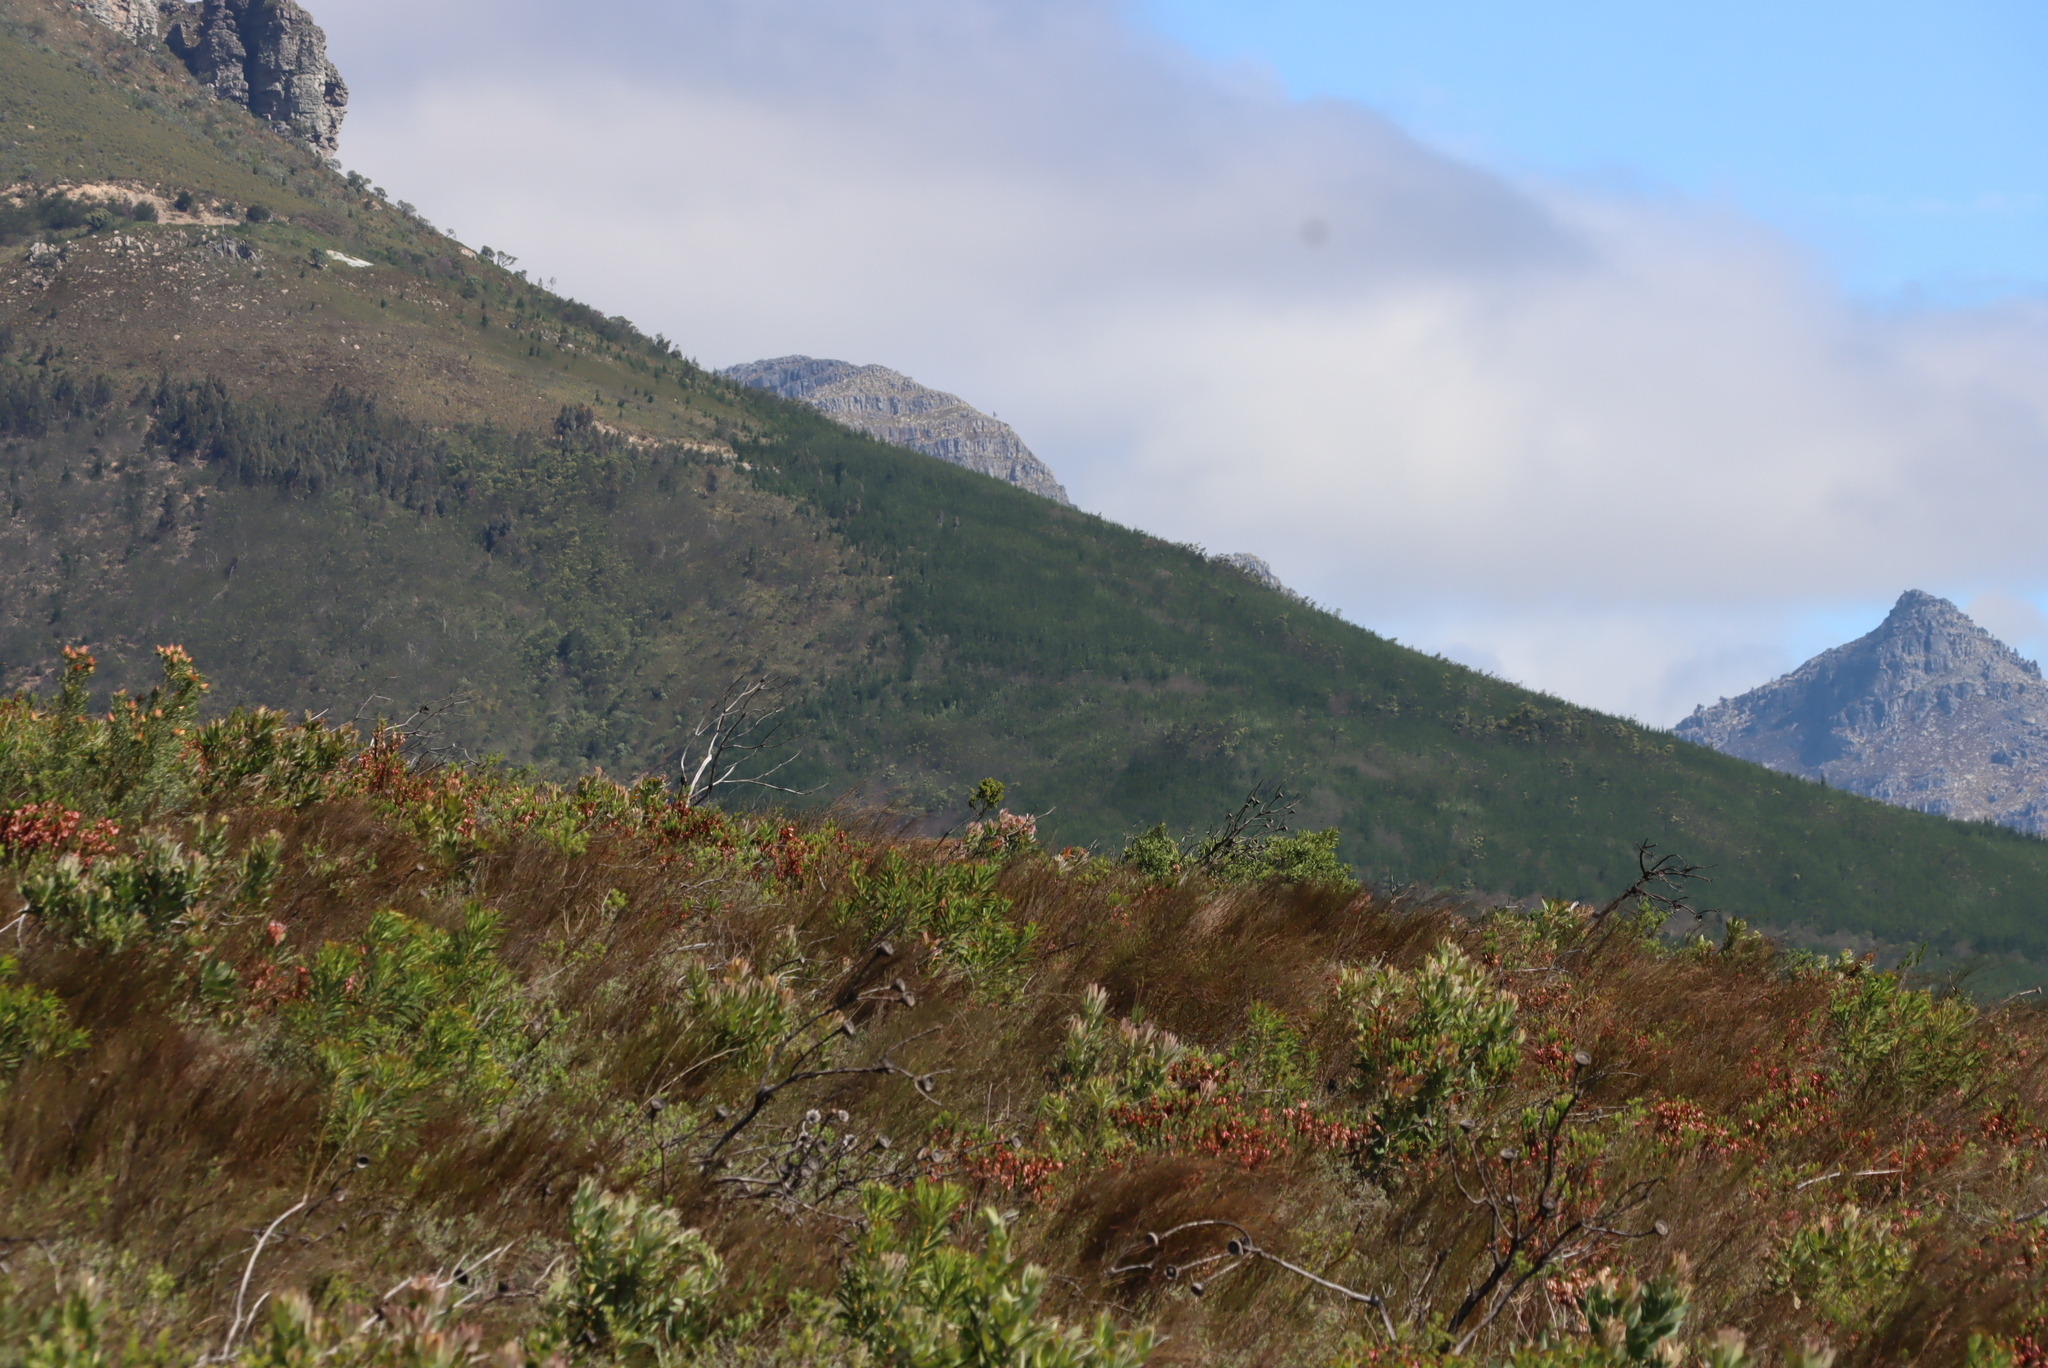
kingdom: Plantae
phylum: Tracheophyta
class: Magnoliopsida
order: Proteales
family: Proteaceae
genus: Hakea
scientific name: Hakea sericea
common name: Needle bush
